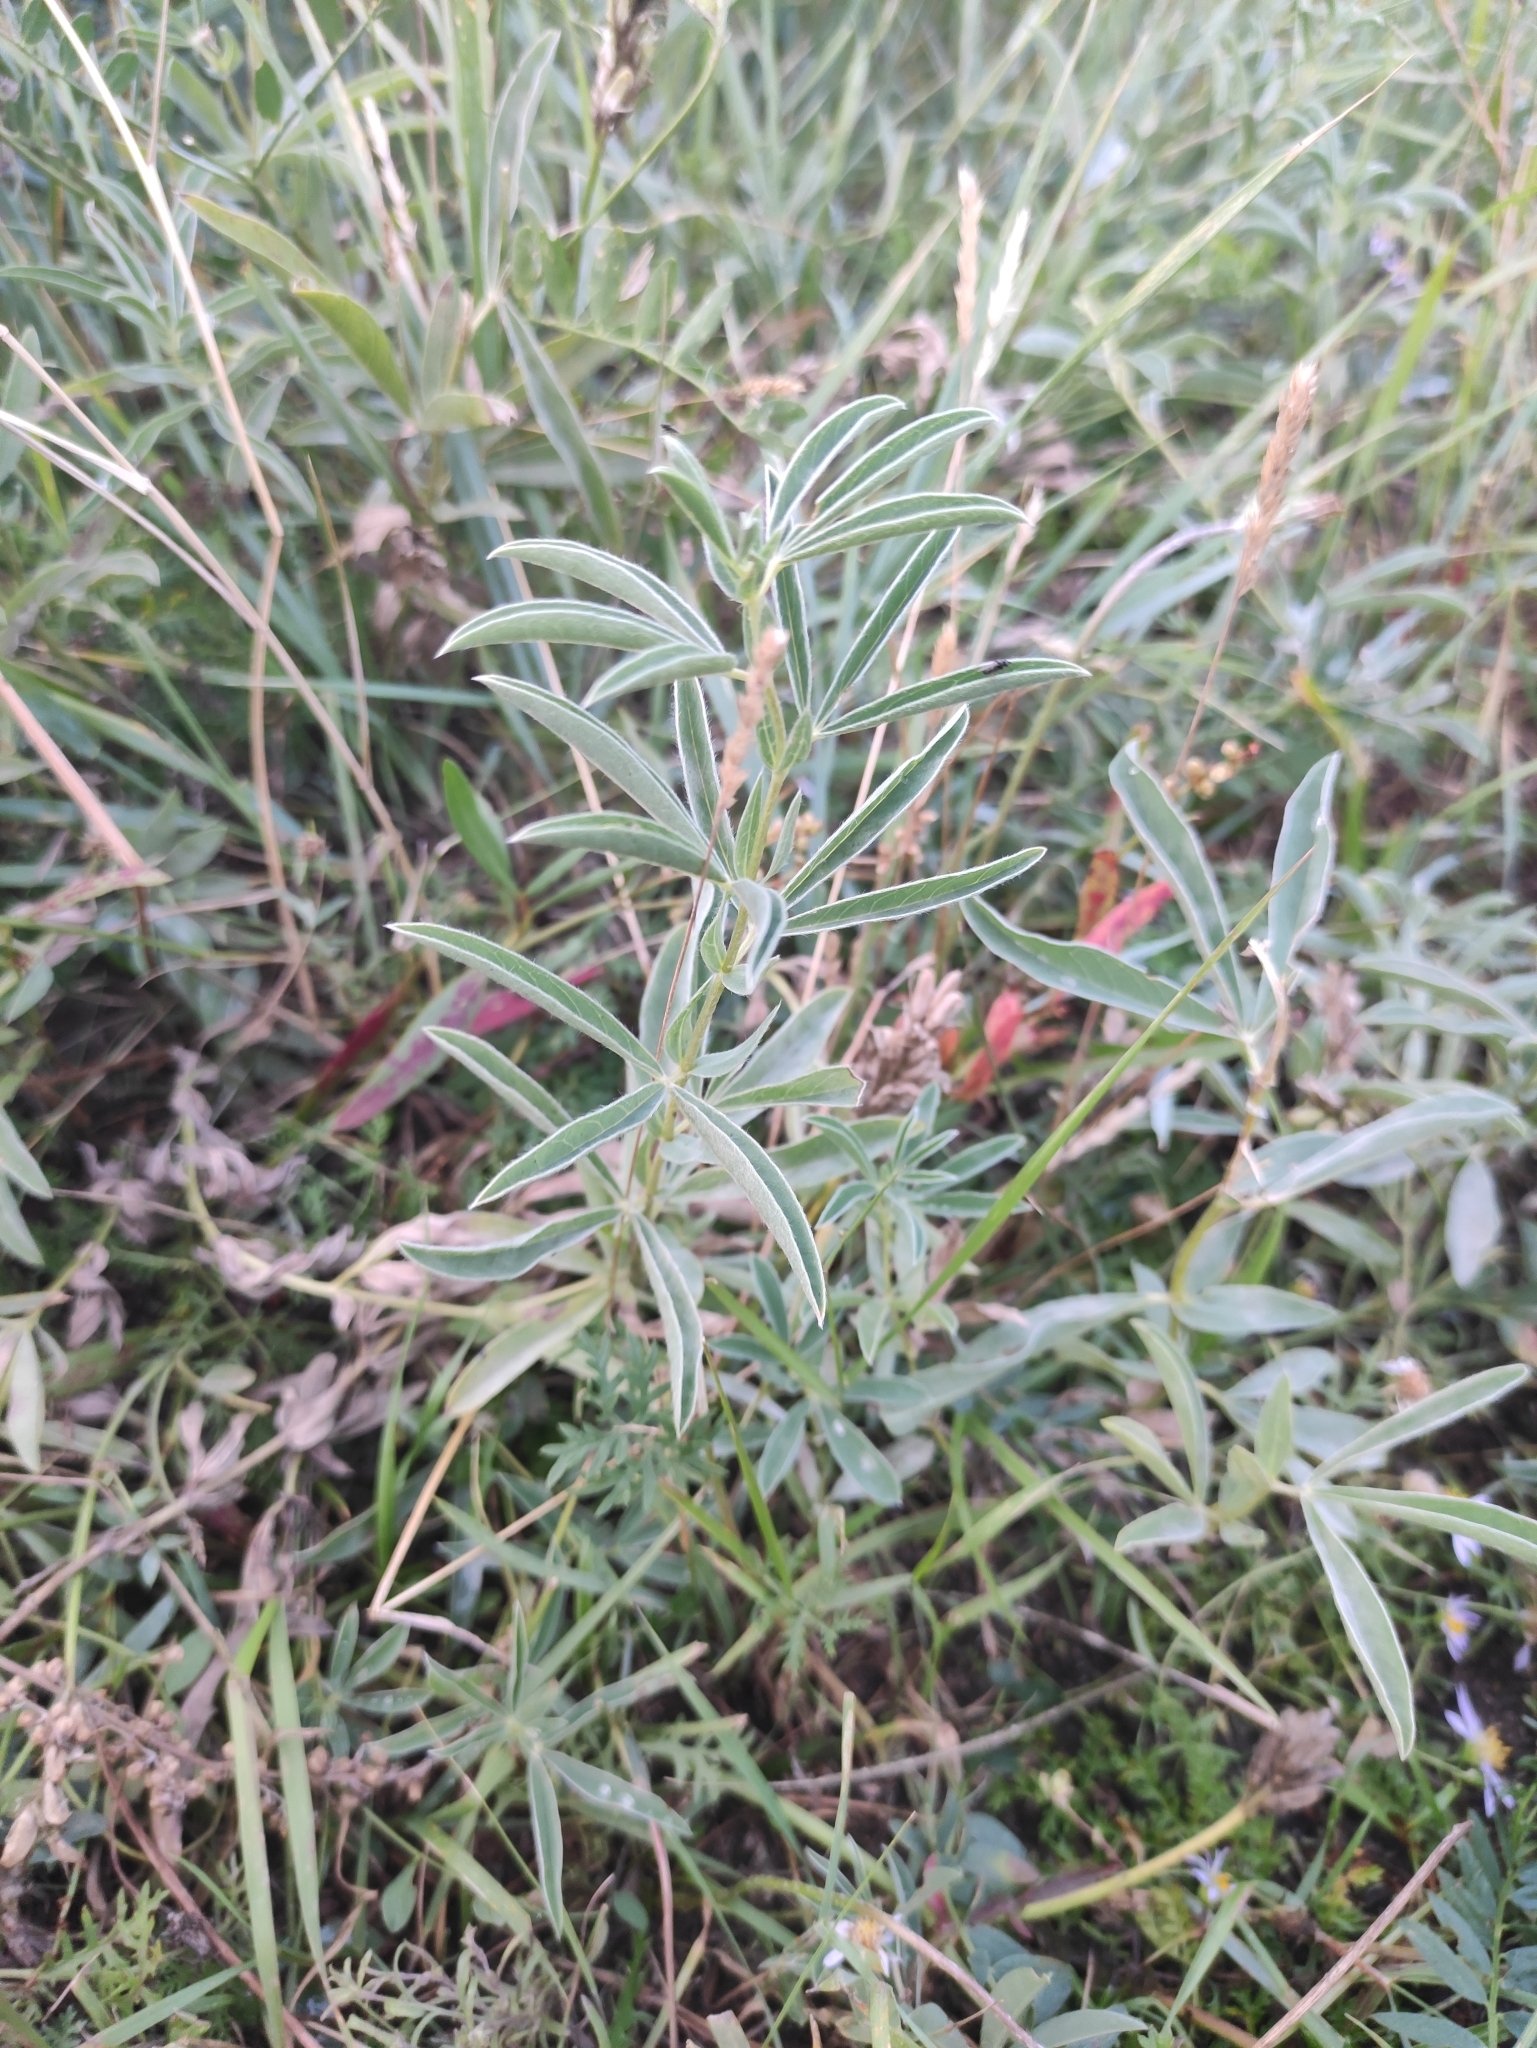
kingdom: Plantae
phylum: Tracheophyta
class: Magnoliopsida
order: Fabales
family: Fabaceae
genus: Thermopsis
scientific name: Thermopsis lanceolata
